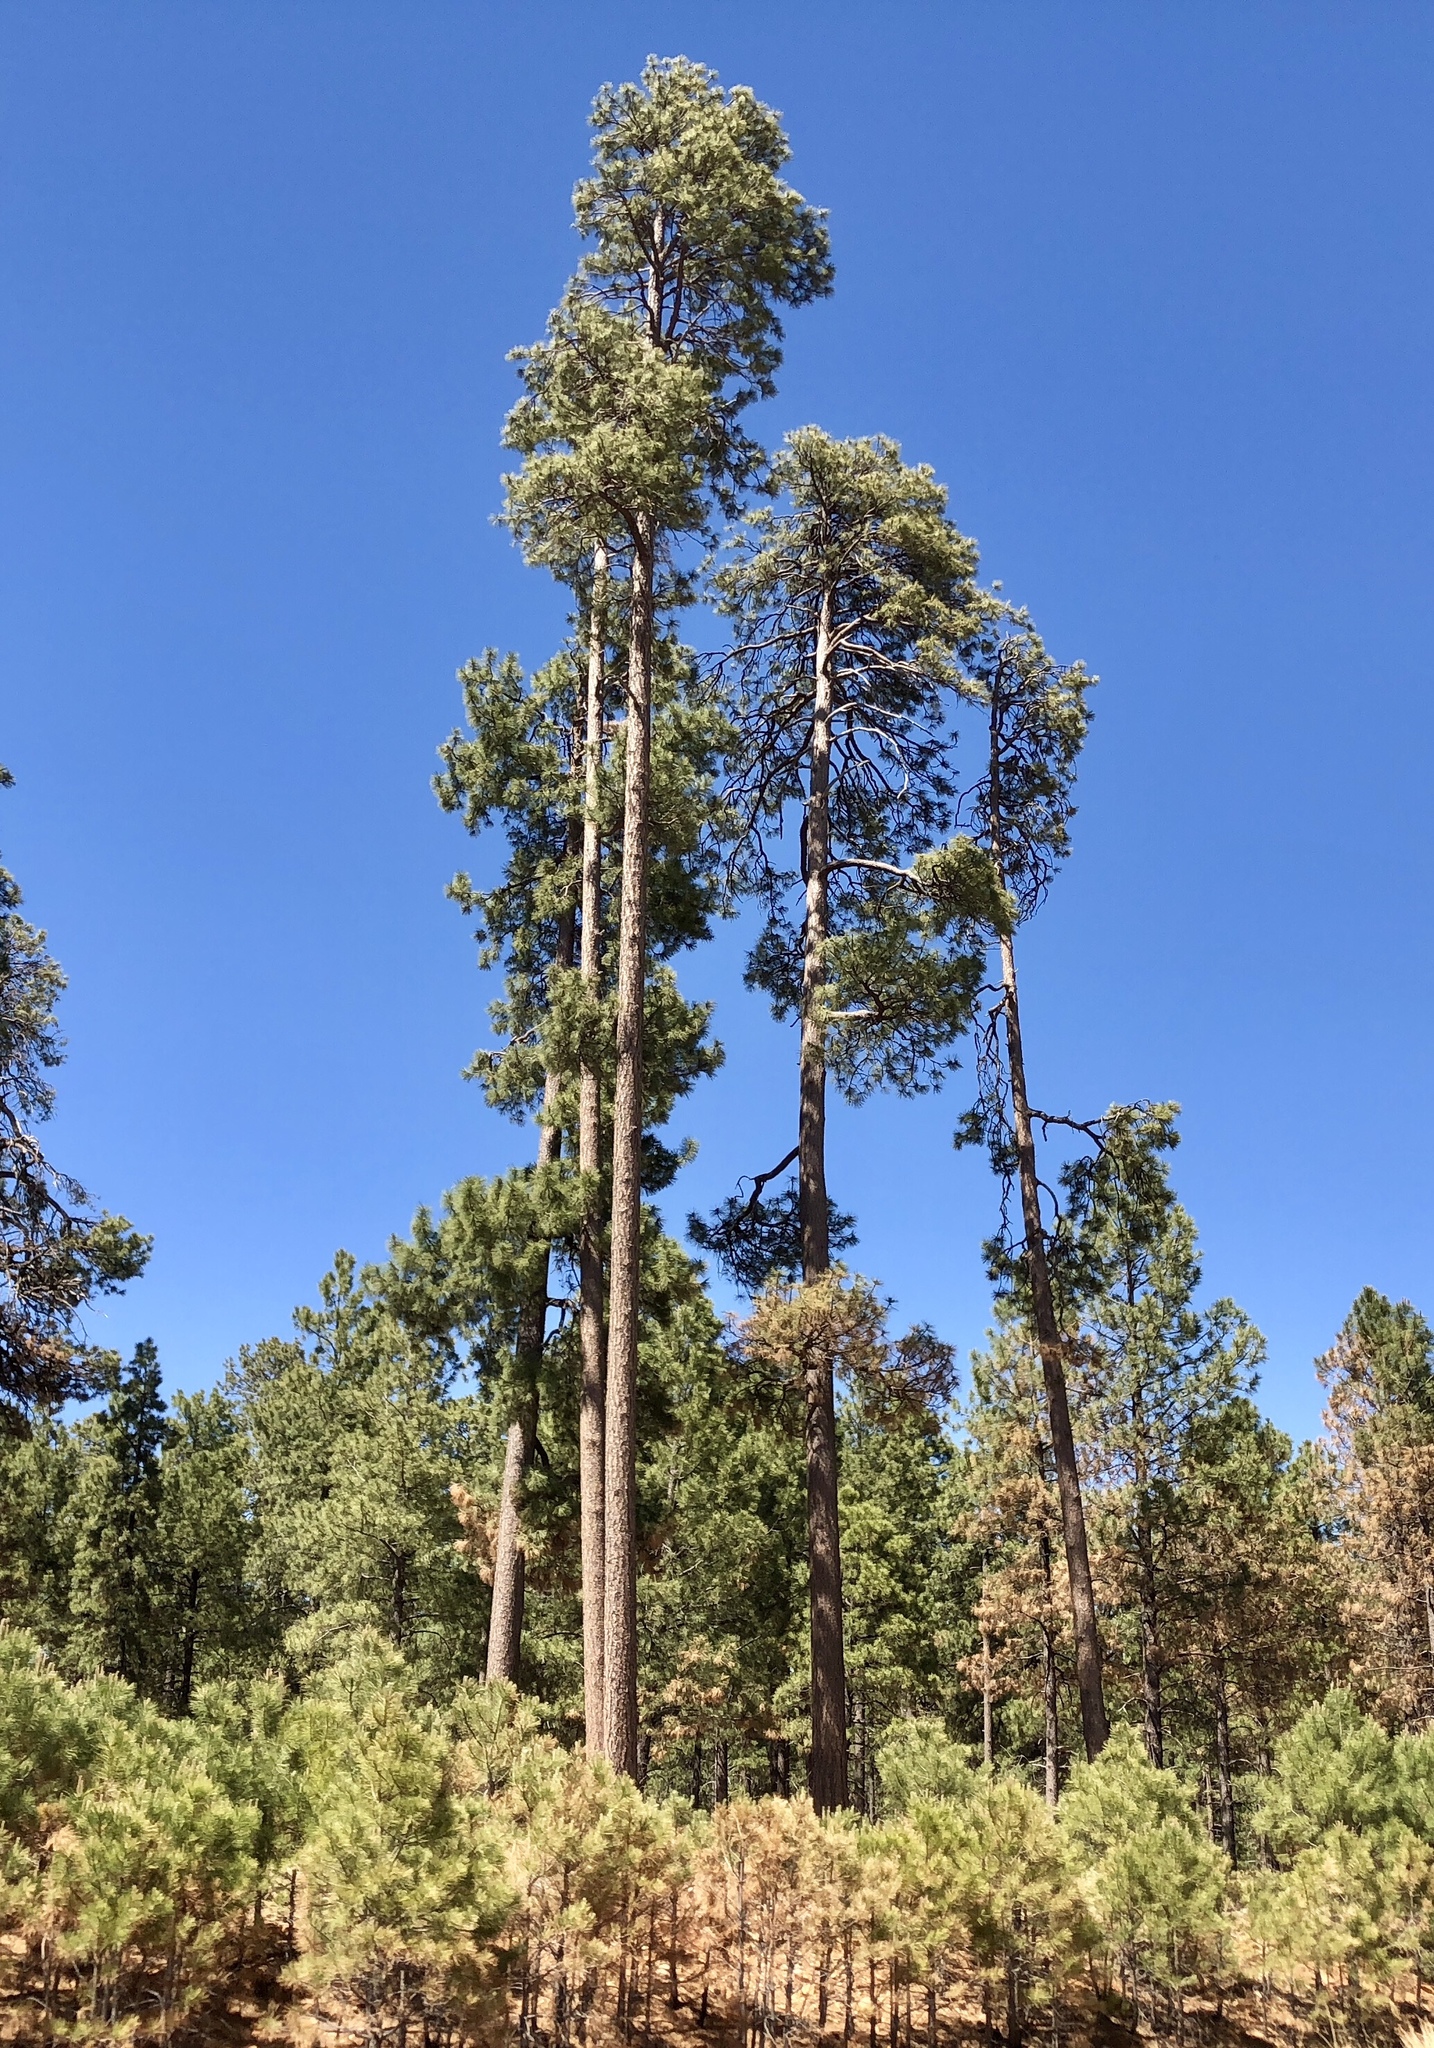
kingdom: Plantae
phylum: Tracheophyta
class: Pinopsida
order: Pinales
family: Pinaceae
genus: Pinus
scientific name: Pinus ponderosa
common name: Western yellow-pine
